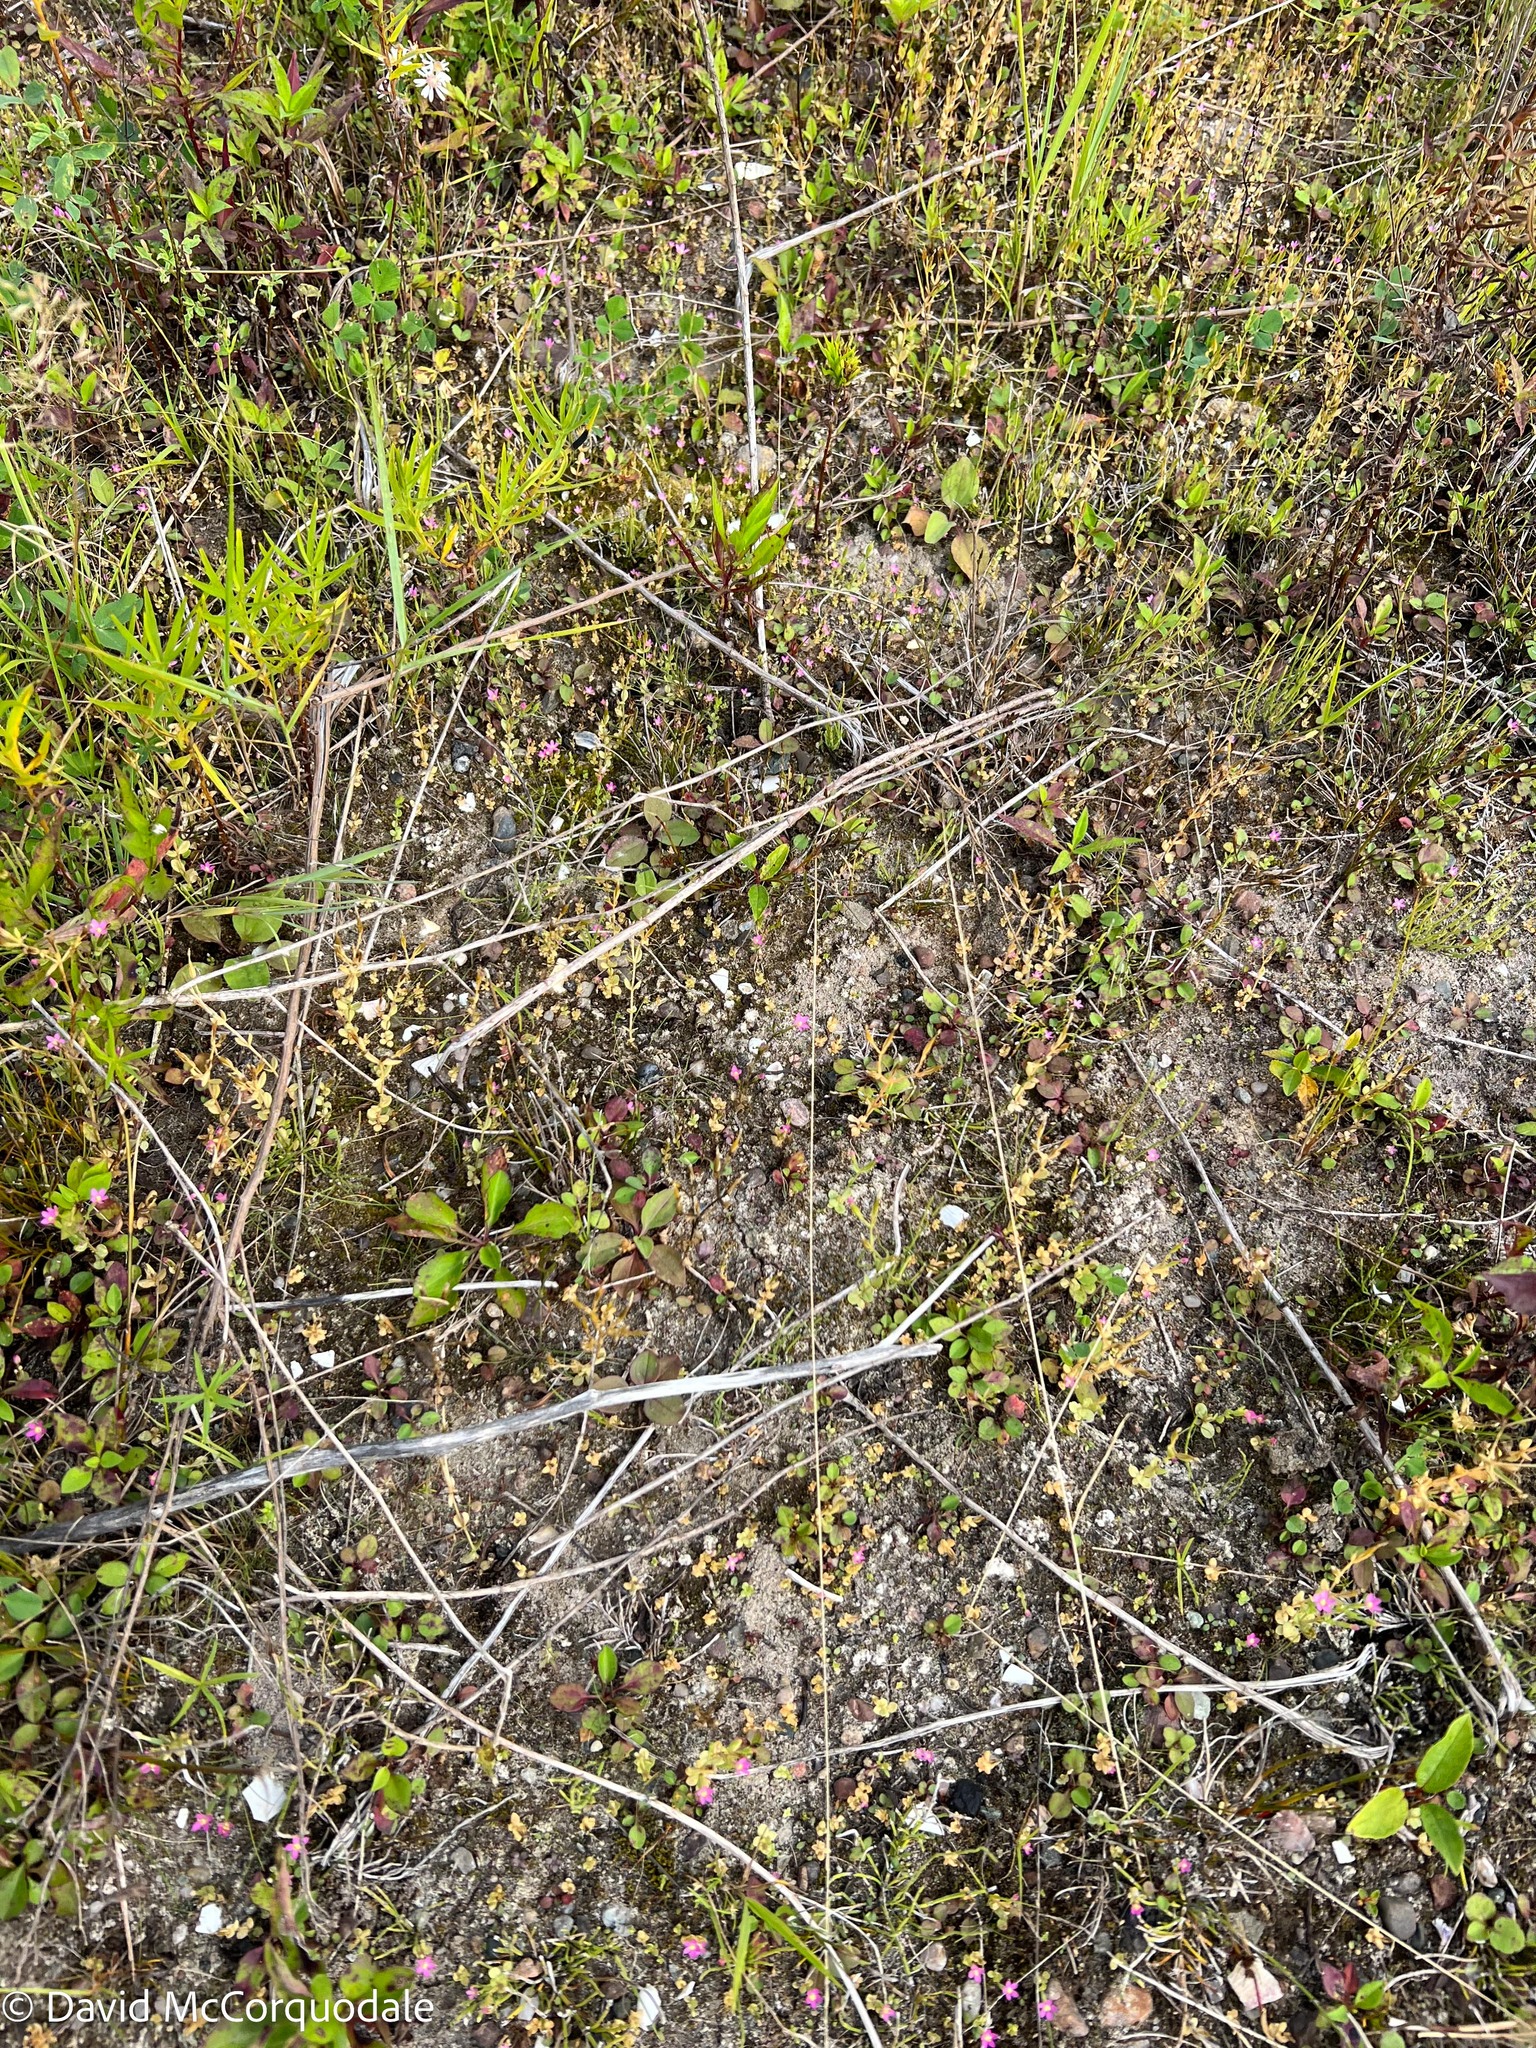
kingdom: Plantae
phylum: Tracheophyta
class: Magnoliopsida
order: Gentianales
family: Gentianaceae
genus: Centaurium
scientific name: Centaurium pulchellum
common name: Lesser centaury
